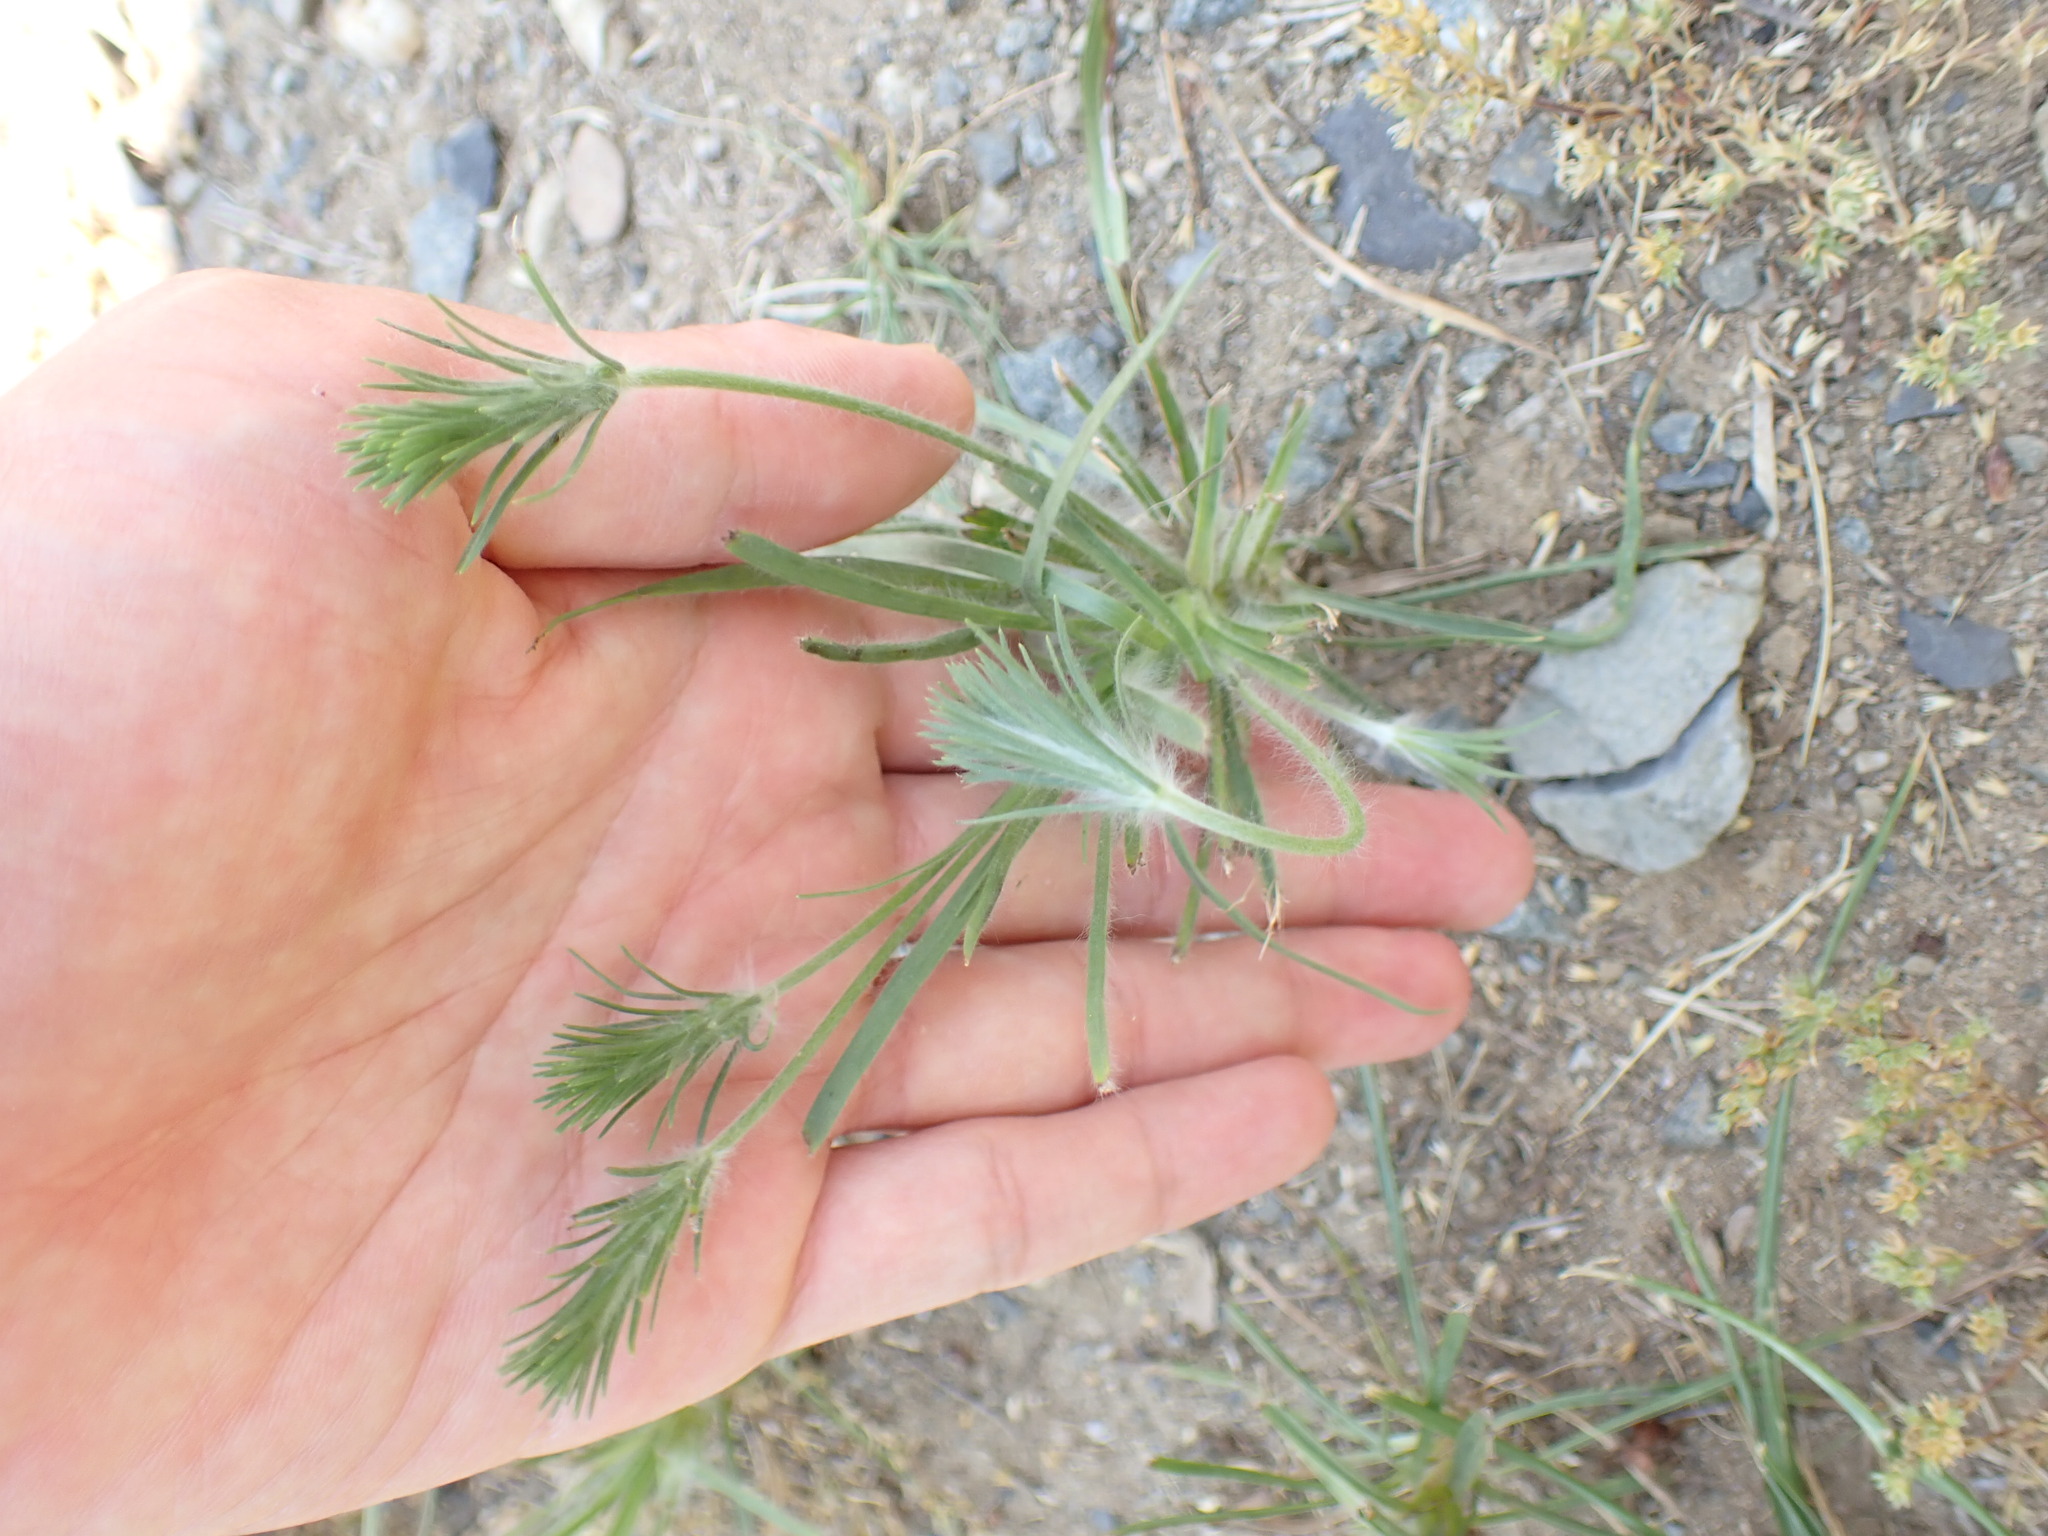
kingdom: Plantae
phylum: Tracheophyta
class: Magnoliopsida
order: Lamiales
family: Plantaginaceae
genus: Plantago
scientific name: Plantago aristata
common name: Bracted plantain
